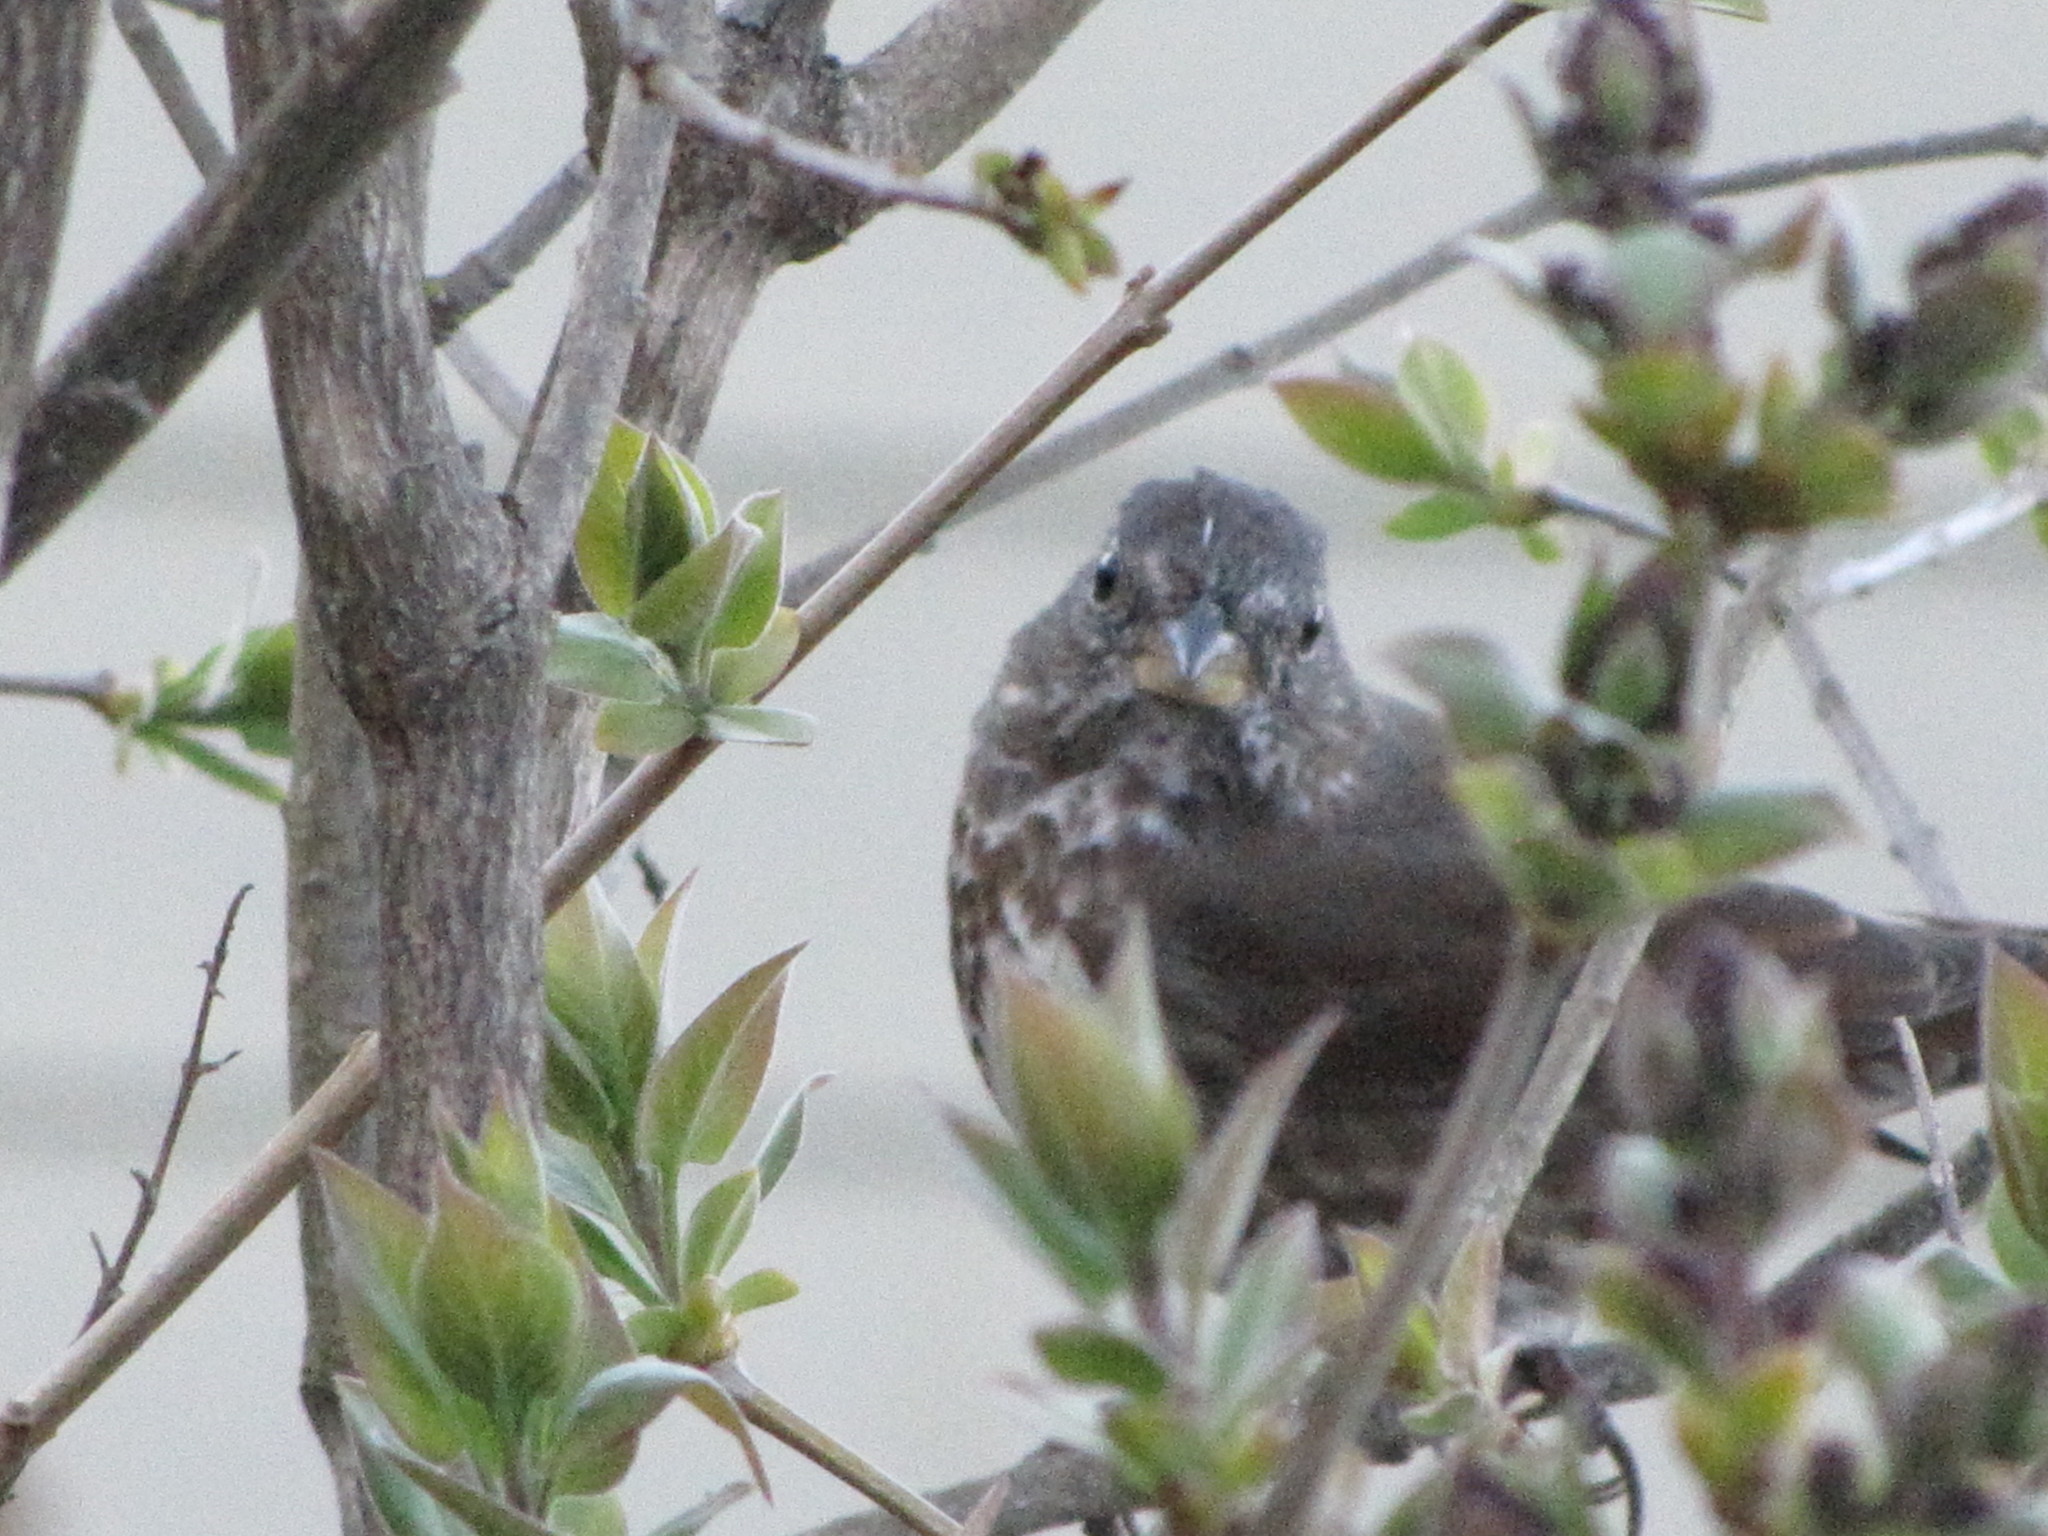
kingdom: Animalia
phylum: Chordata
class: Aves
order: Passeriformes
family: Passerellidae
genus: Passerella
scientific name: Passerella iliaca
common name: Fox sparrow
